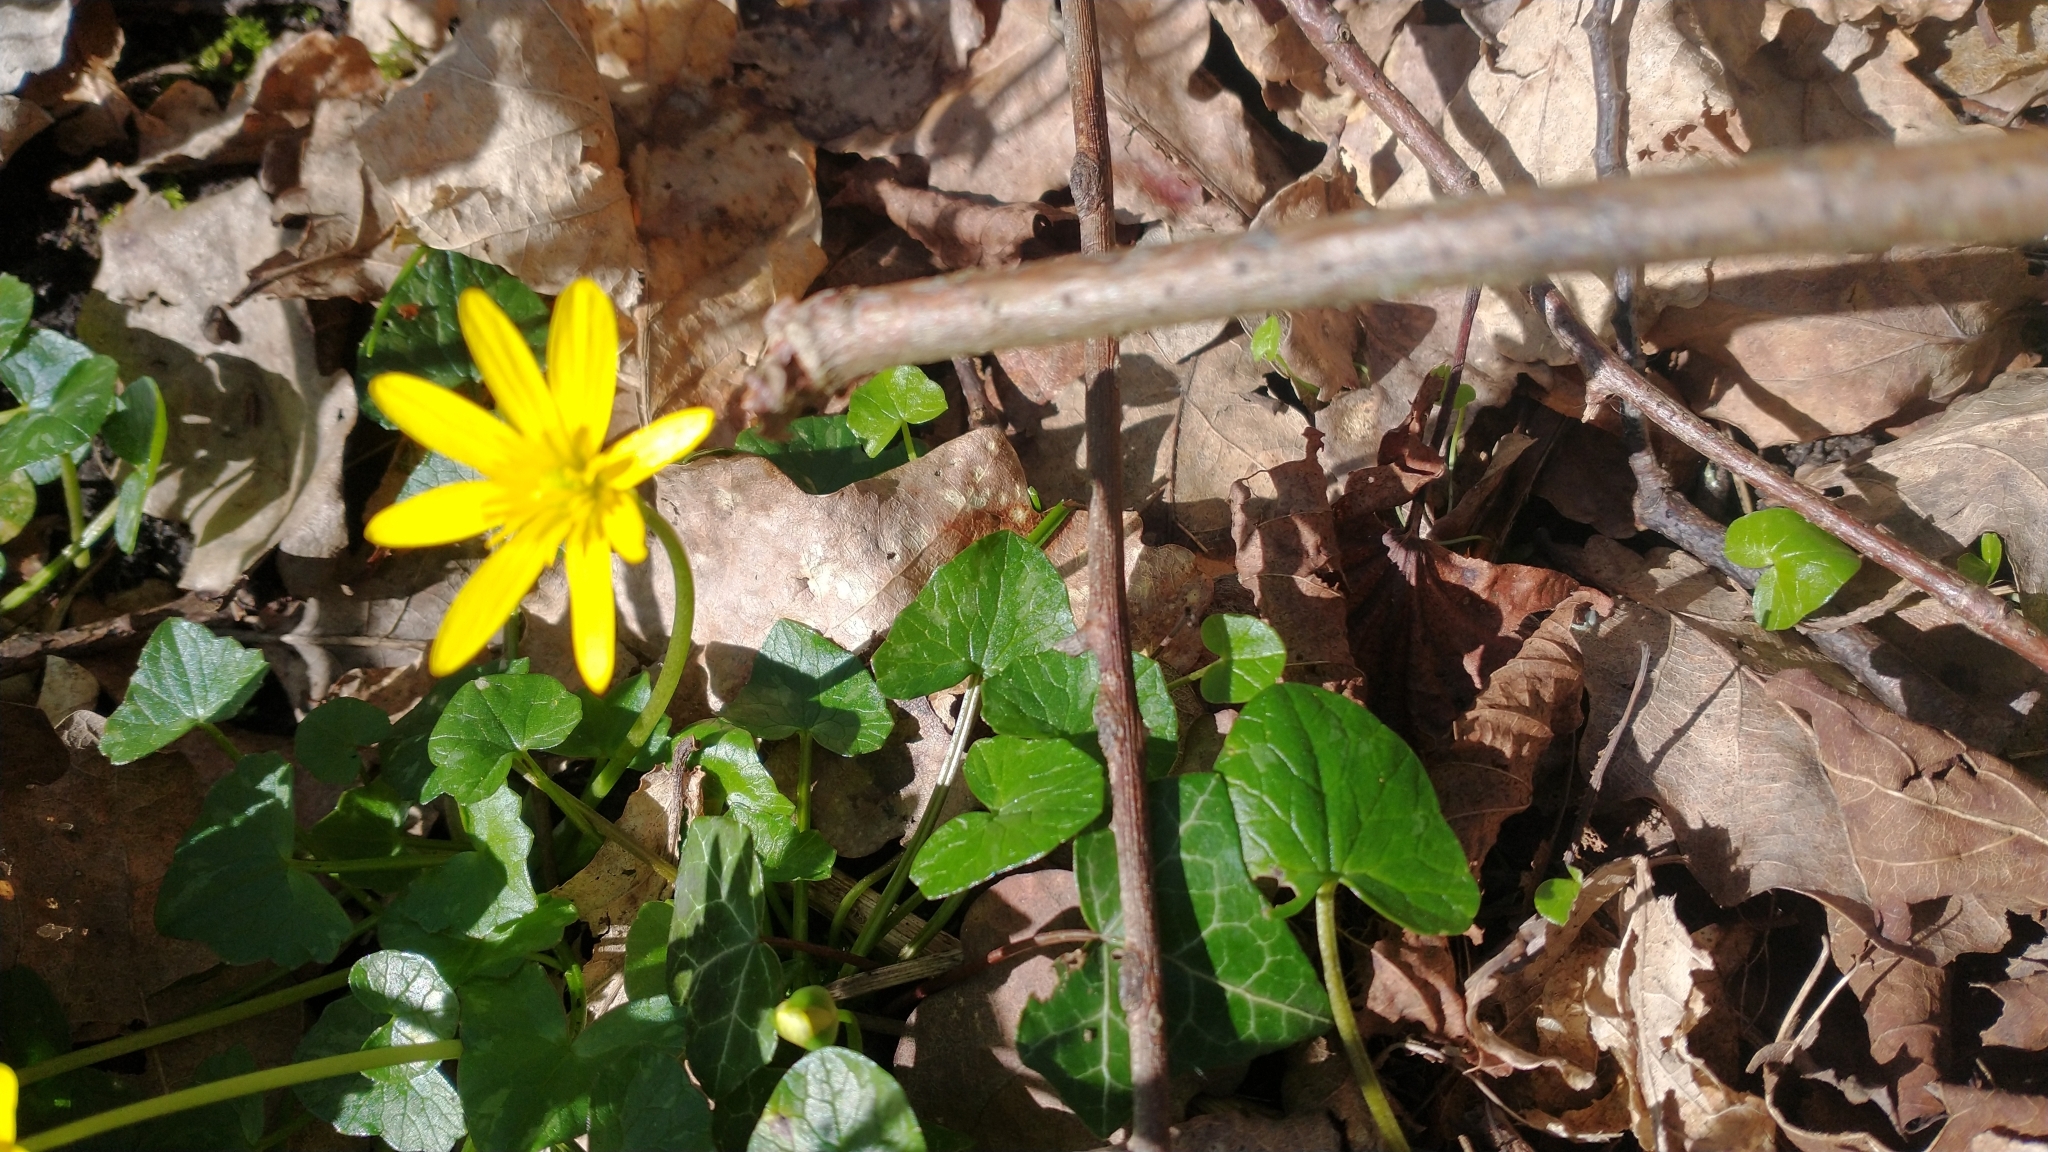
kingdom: Plantae
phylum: Tracheophyta
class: Magnoliopsida
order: Ranunculales
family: Ranunculaceae
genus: Ficaria
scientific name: Ficaria verna
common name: Lesser celandine
